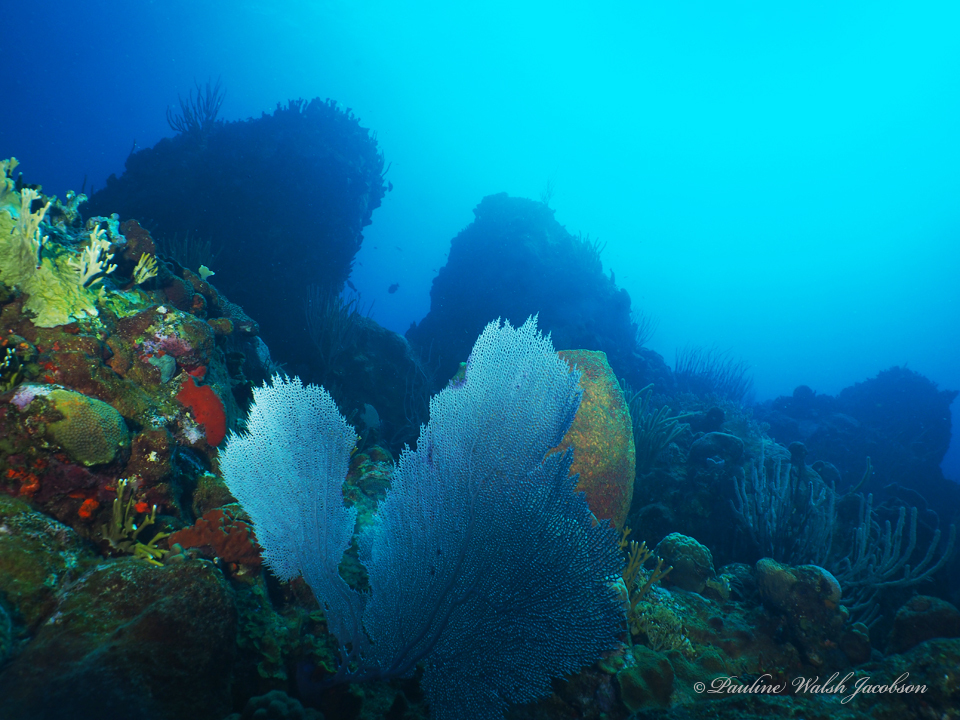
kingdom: Animalia
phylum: Cnidaria
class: Anthozoa
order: Malacalcyonacea
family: Gorgoniidae
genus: Gorgonia
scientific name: Gorgonia ventalina
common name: Common sea fan
